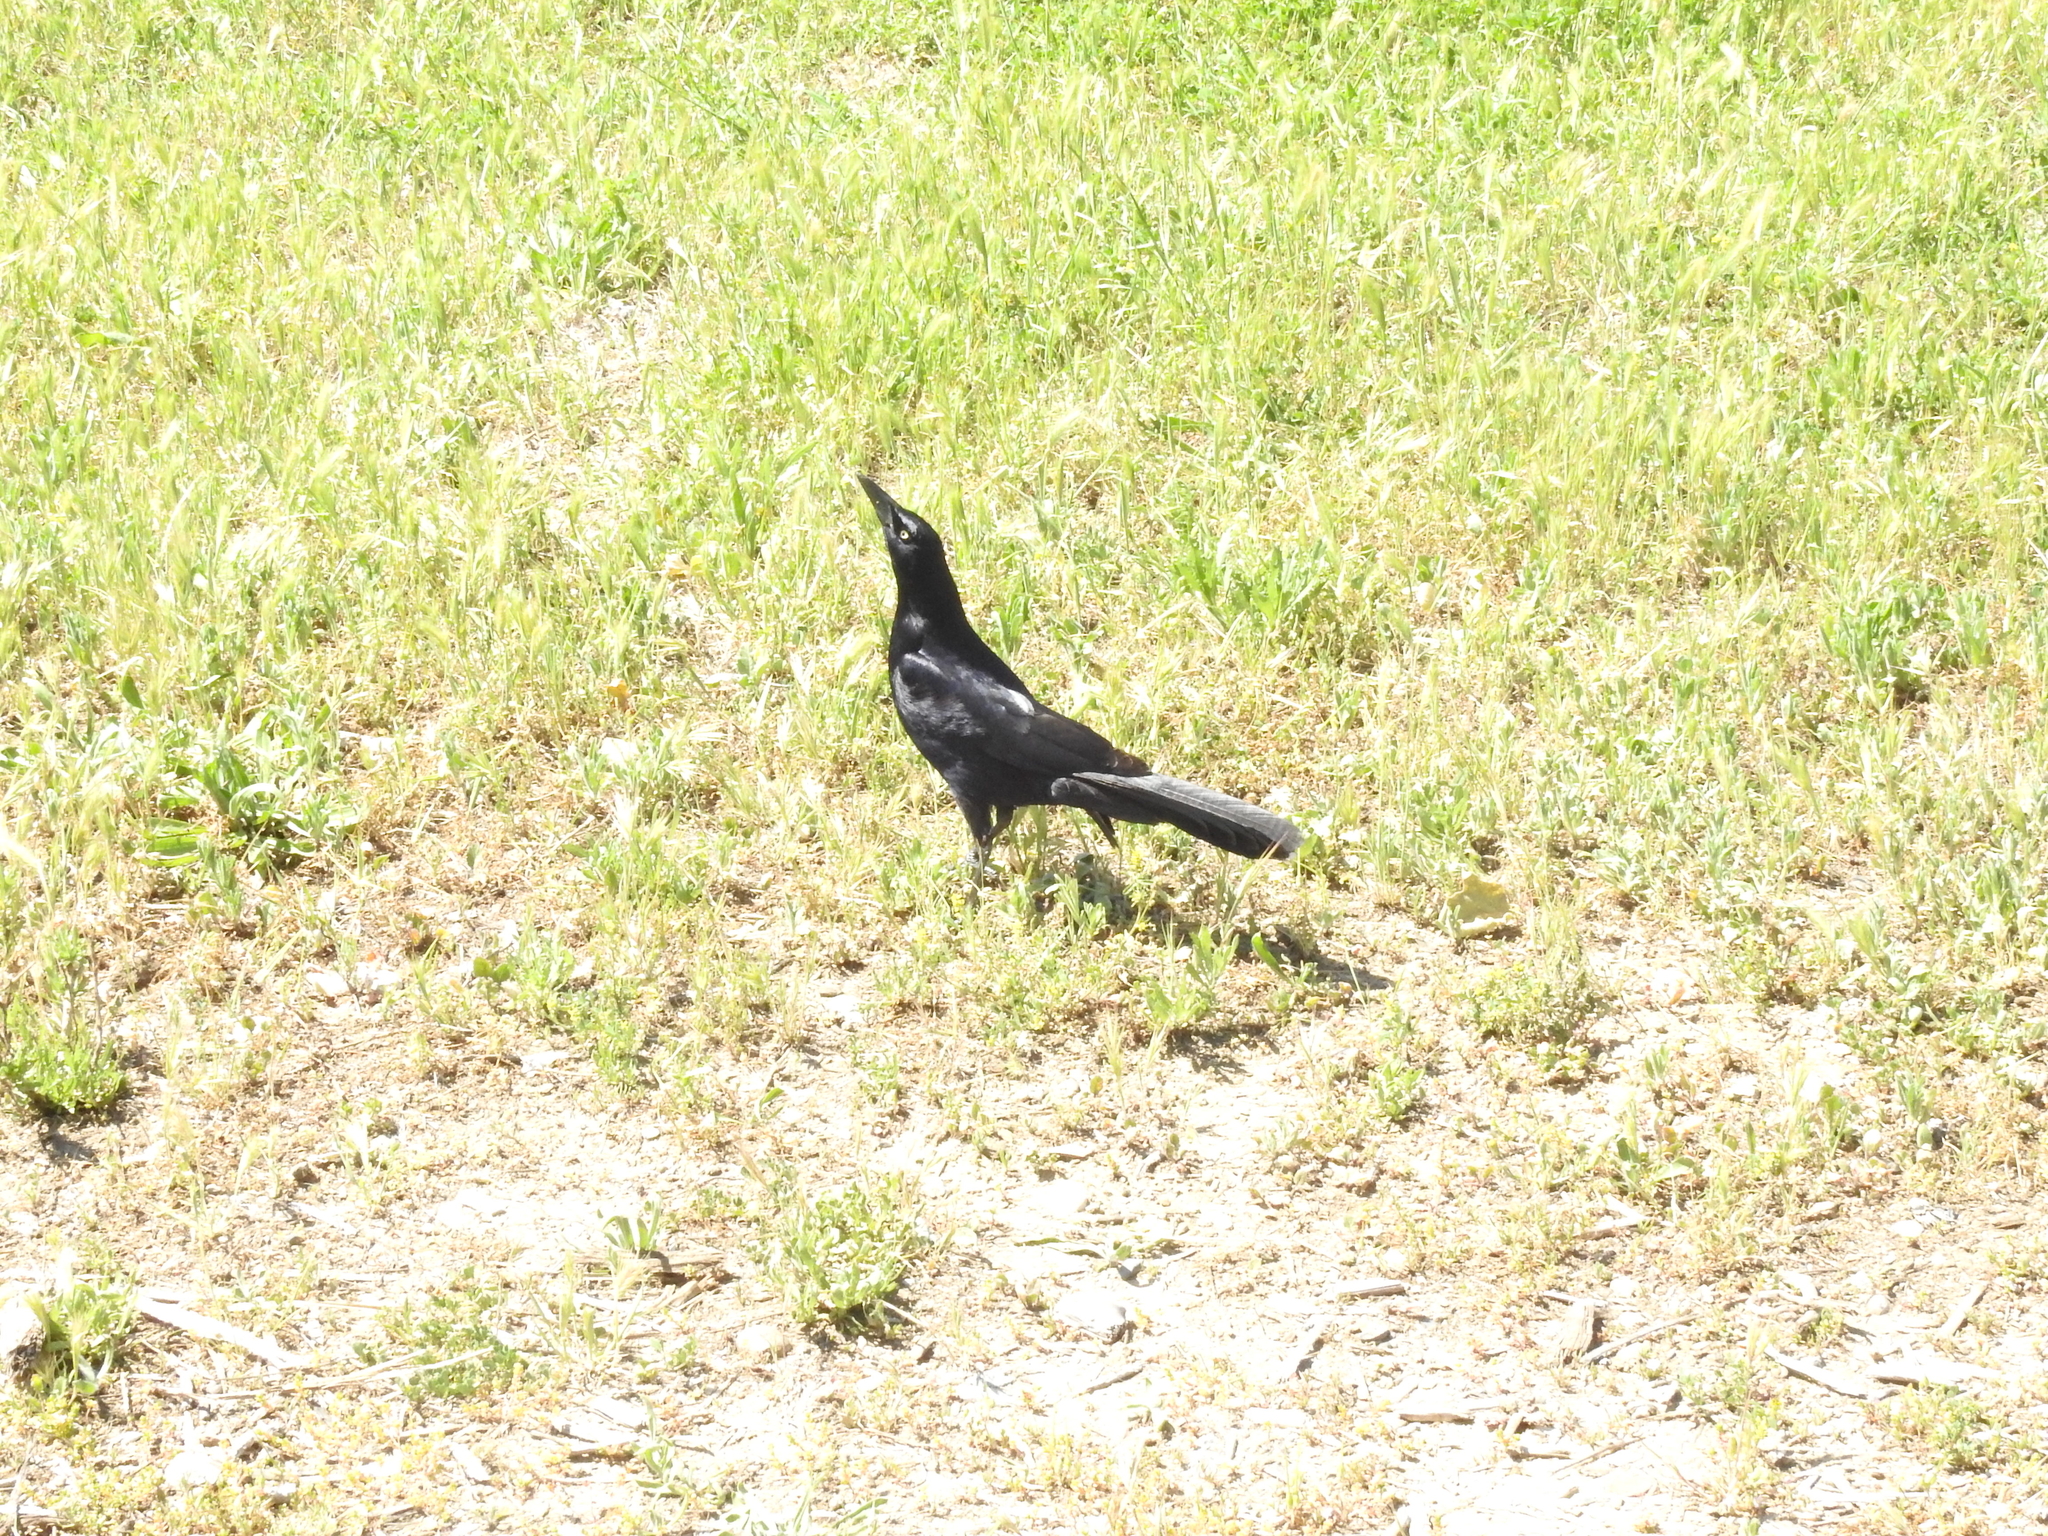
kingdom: Animalia
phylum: Chordata
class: Aves
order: Passeriformes
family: Icteridae
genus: Quiscalus
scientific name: Quiscalus mexicanus
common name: Great-tailed grackle
